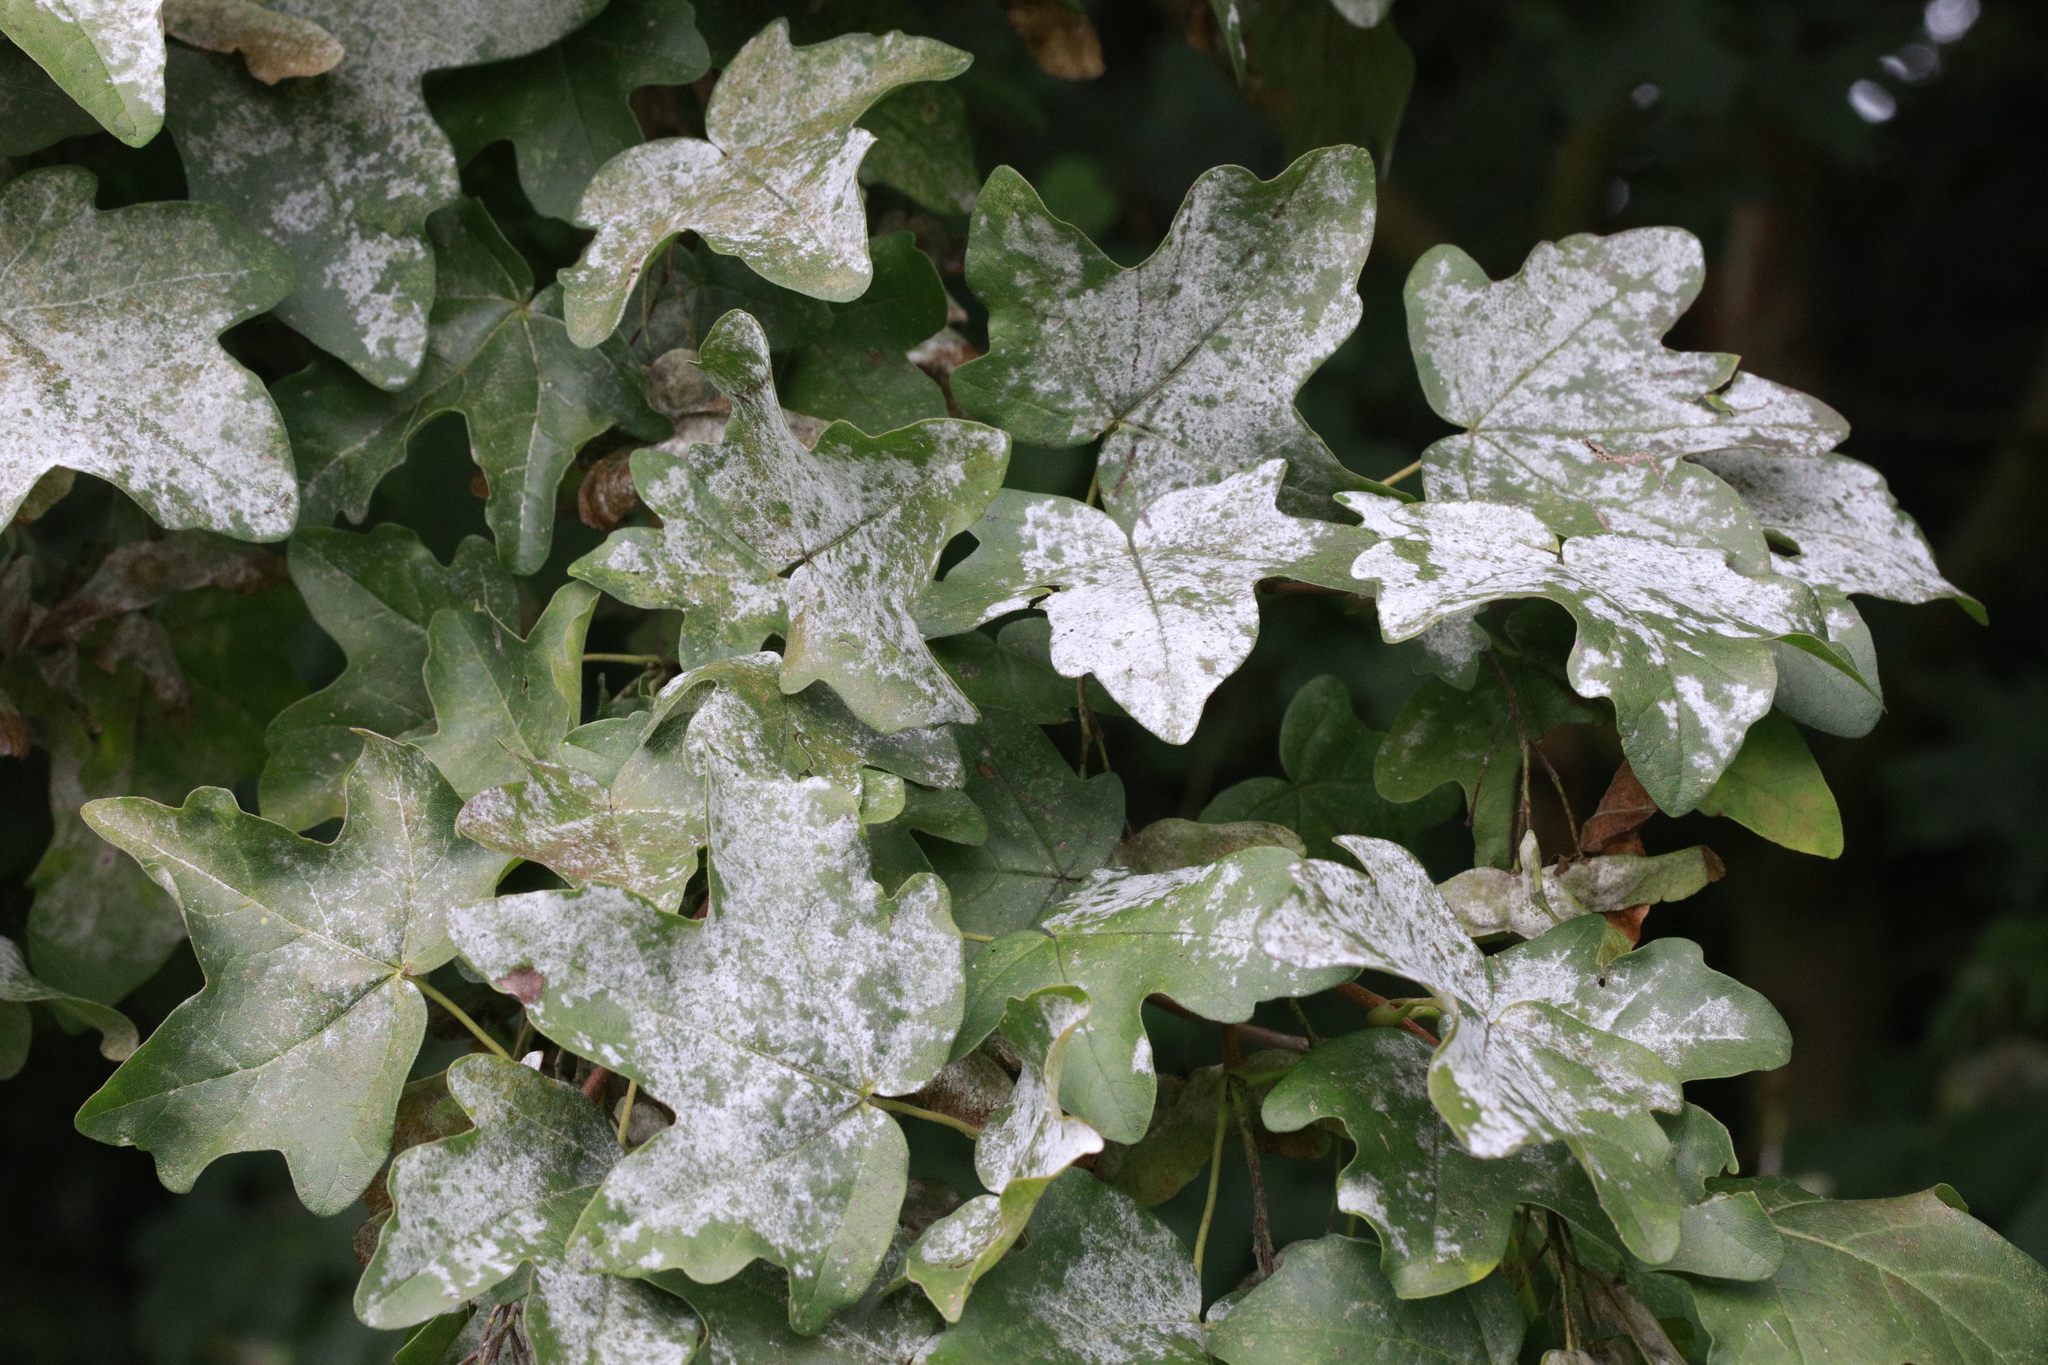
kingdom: Fungi
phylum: Ascomycota
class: Leotiomycetes
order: Helotiales
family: Erysiphaceae
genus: Sawadaea
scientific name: Sawadaea bicornis
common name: Maple mildew
